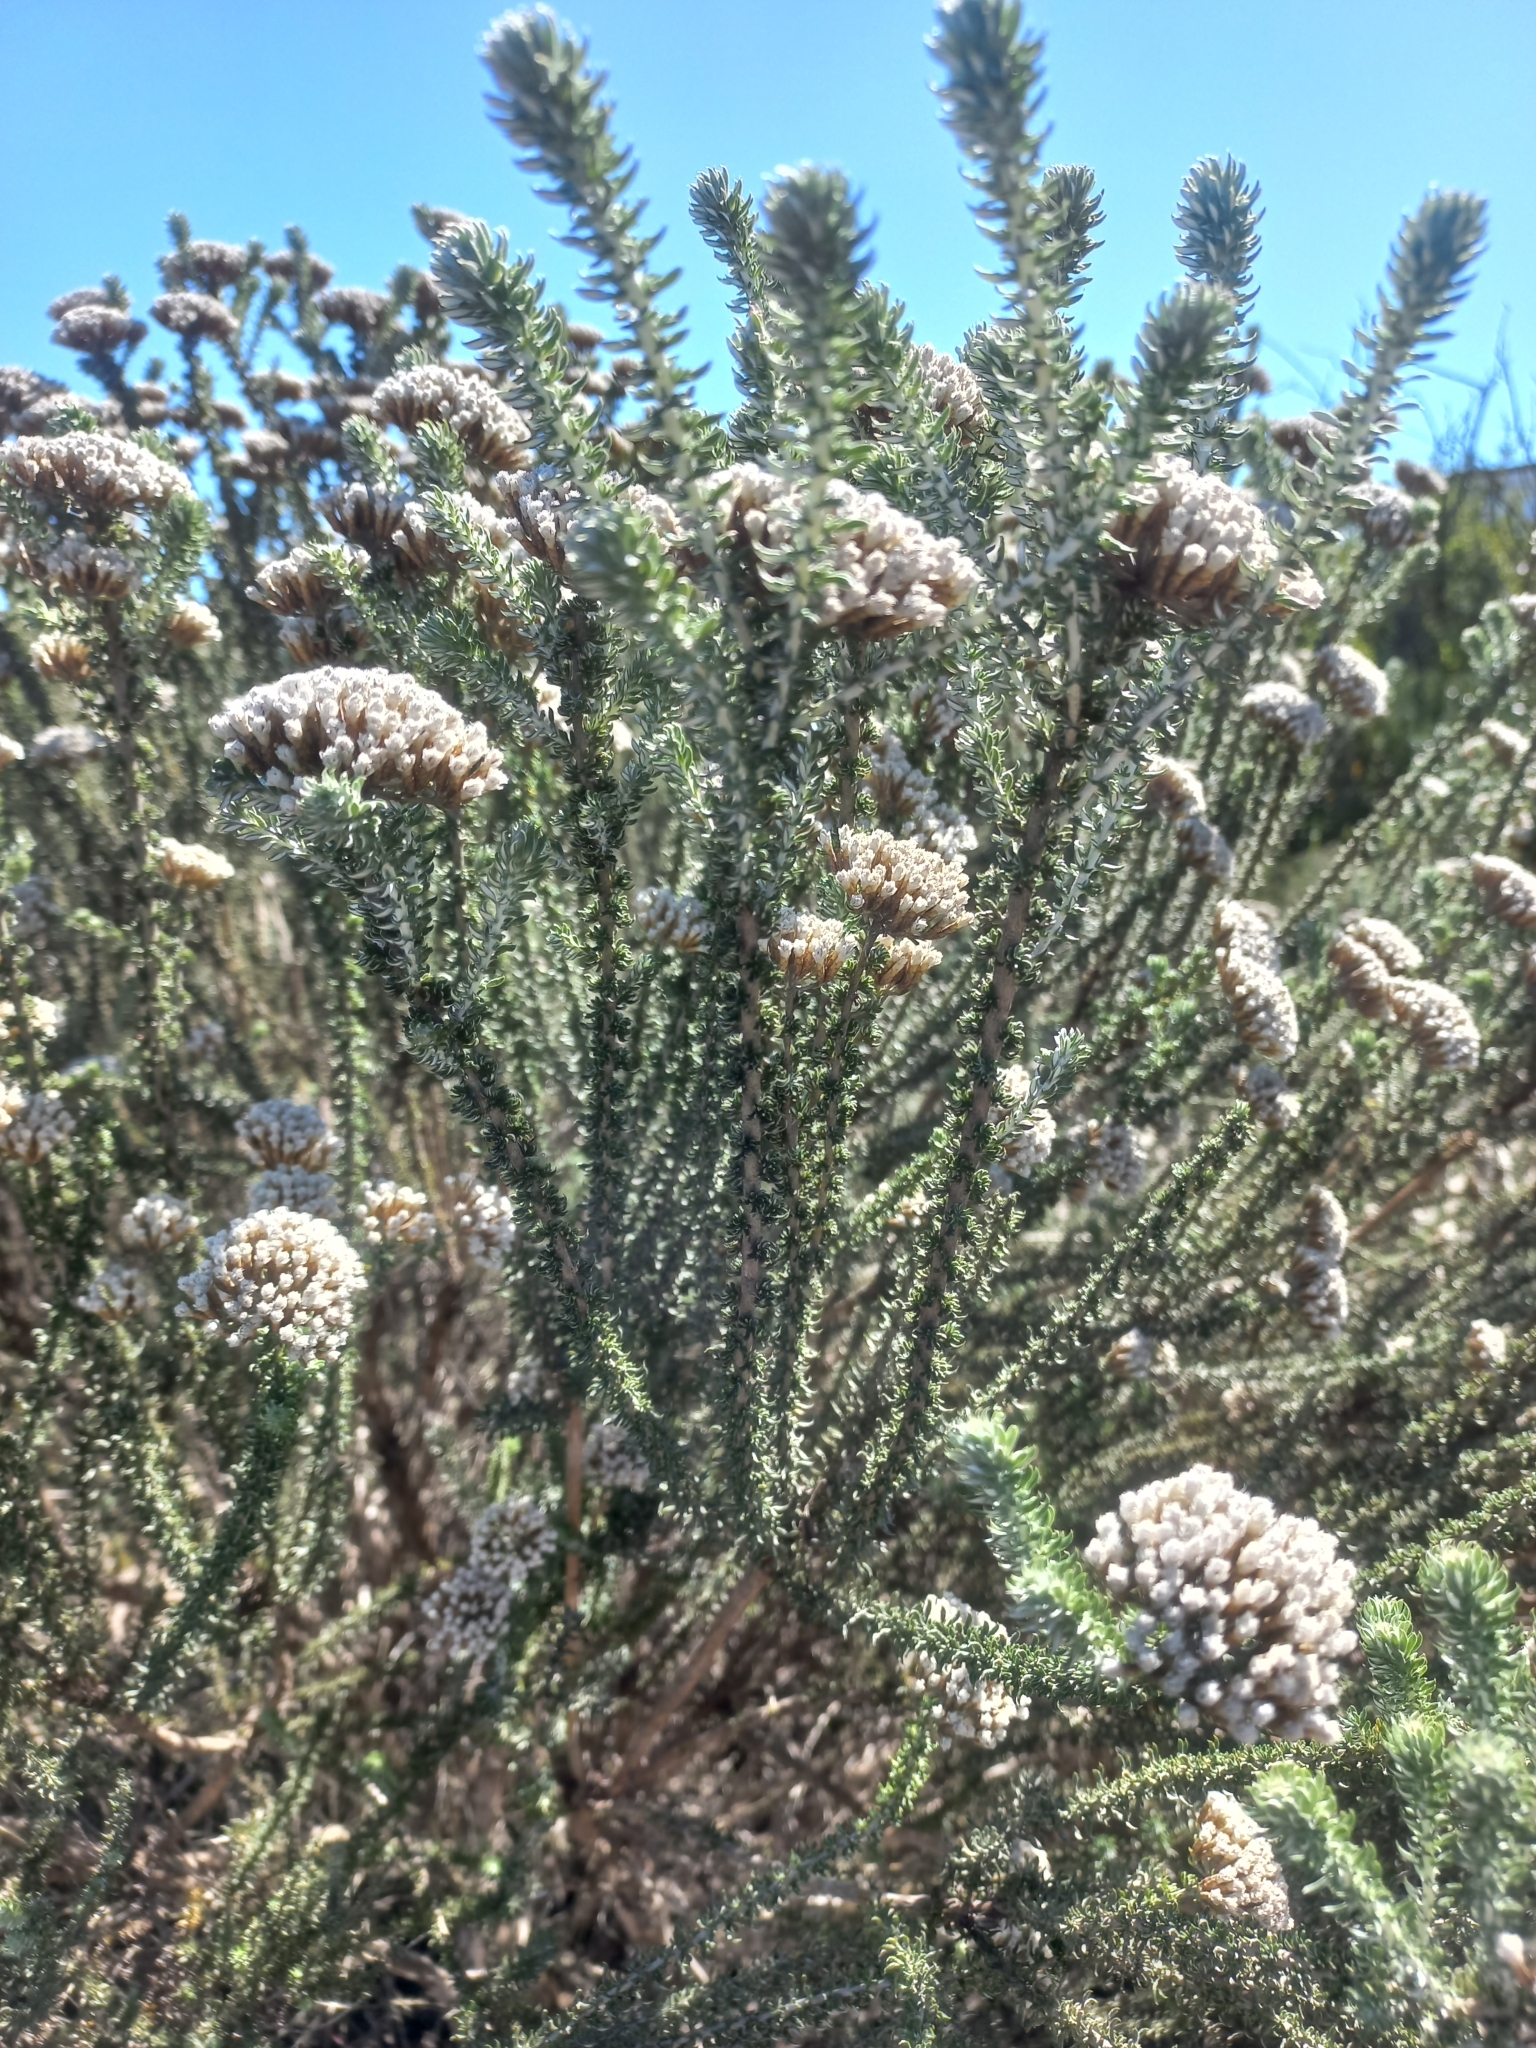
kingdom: Plantae
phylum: Tracheophyta
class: Magnoliopsida
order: Asterales
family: Asteraceae
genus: Metalasia
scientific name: Metalasia muricata
